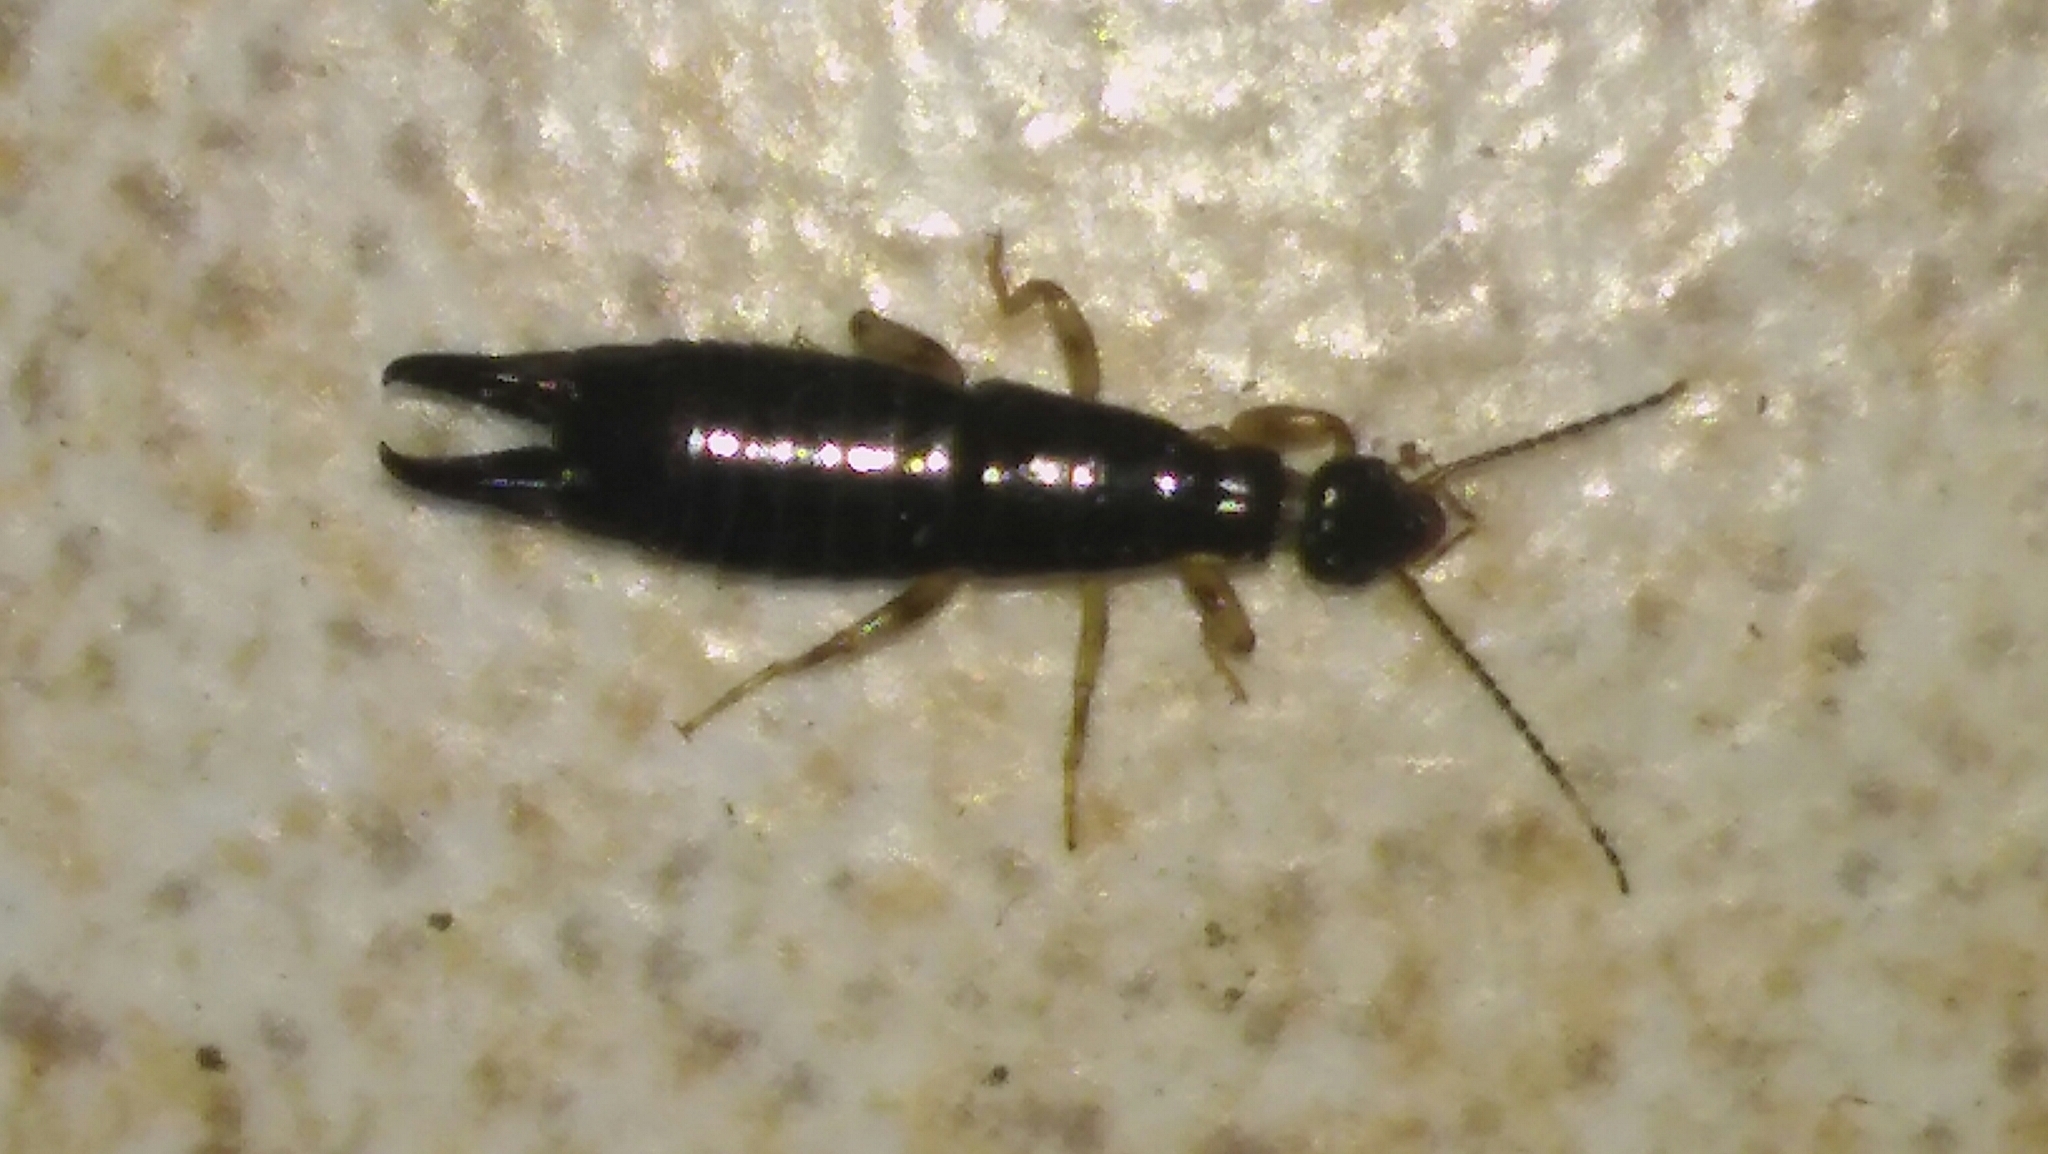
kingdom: Animalia
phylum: Arthropoda
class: Insecta
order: Dermaptera
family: Anisolabididae
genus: Euborellia
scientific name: Euborellia annulipes
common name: Ringlegged earwig
